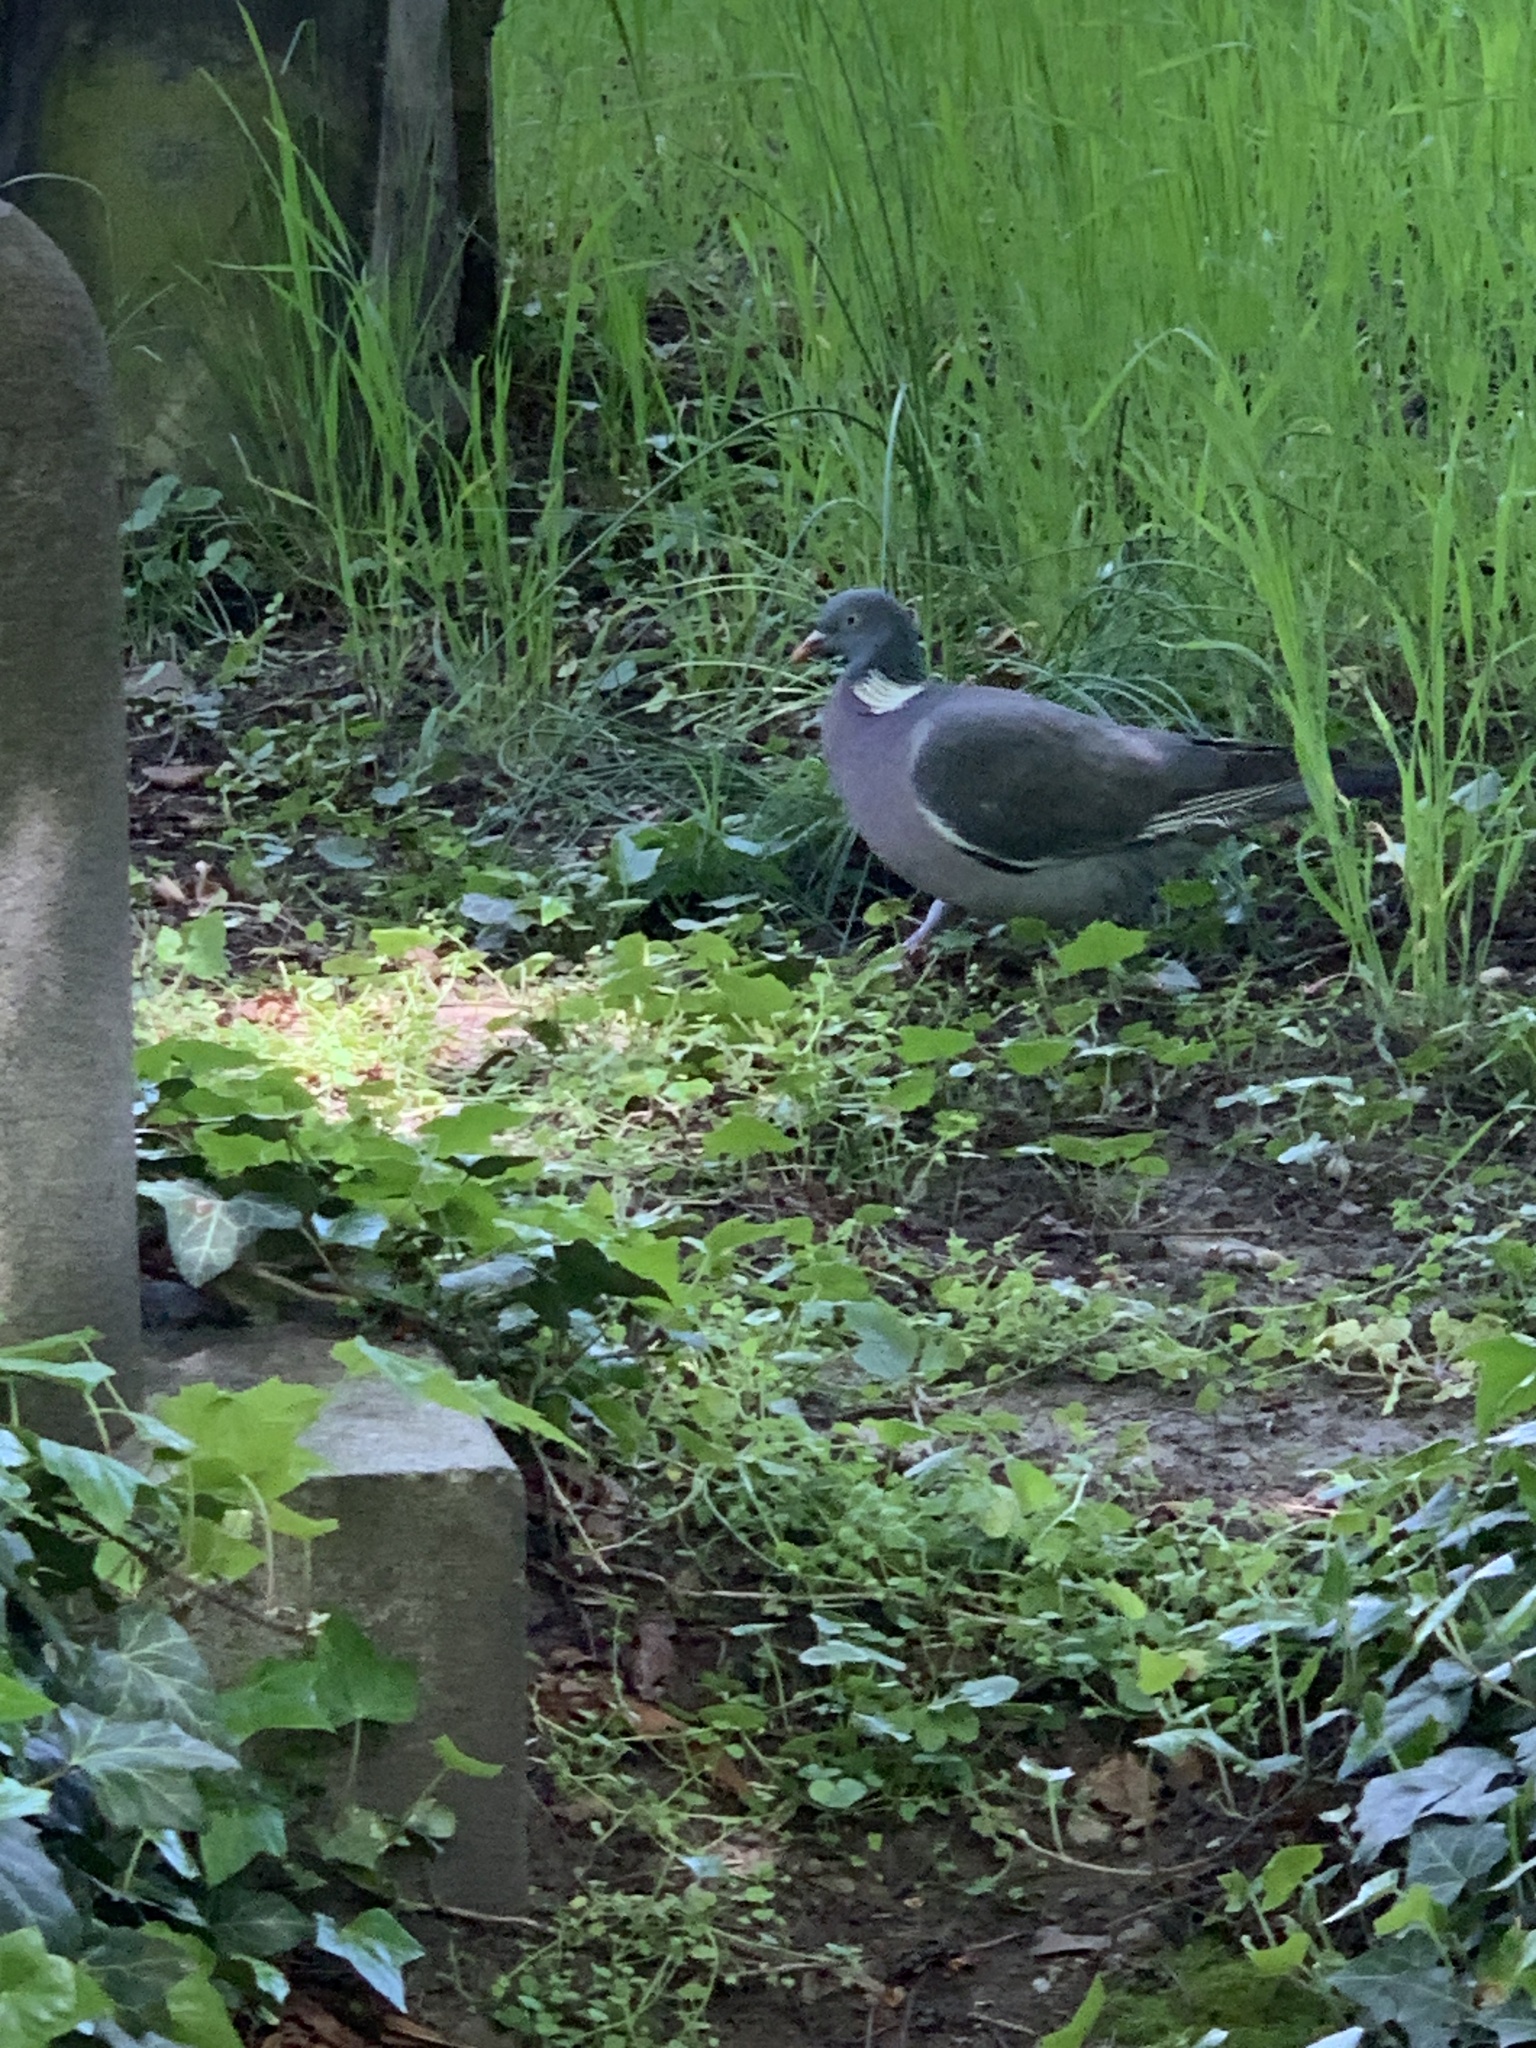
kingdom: Animalia
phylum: Chordata
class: Aves
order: Columbiformes
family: Columbidae
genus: Columba
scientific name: Columba palumbus
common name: Common wood pigeon
